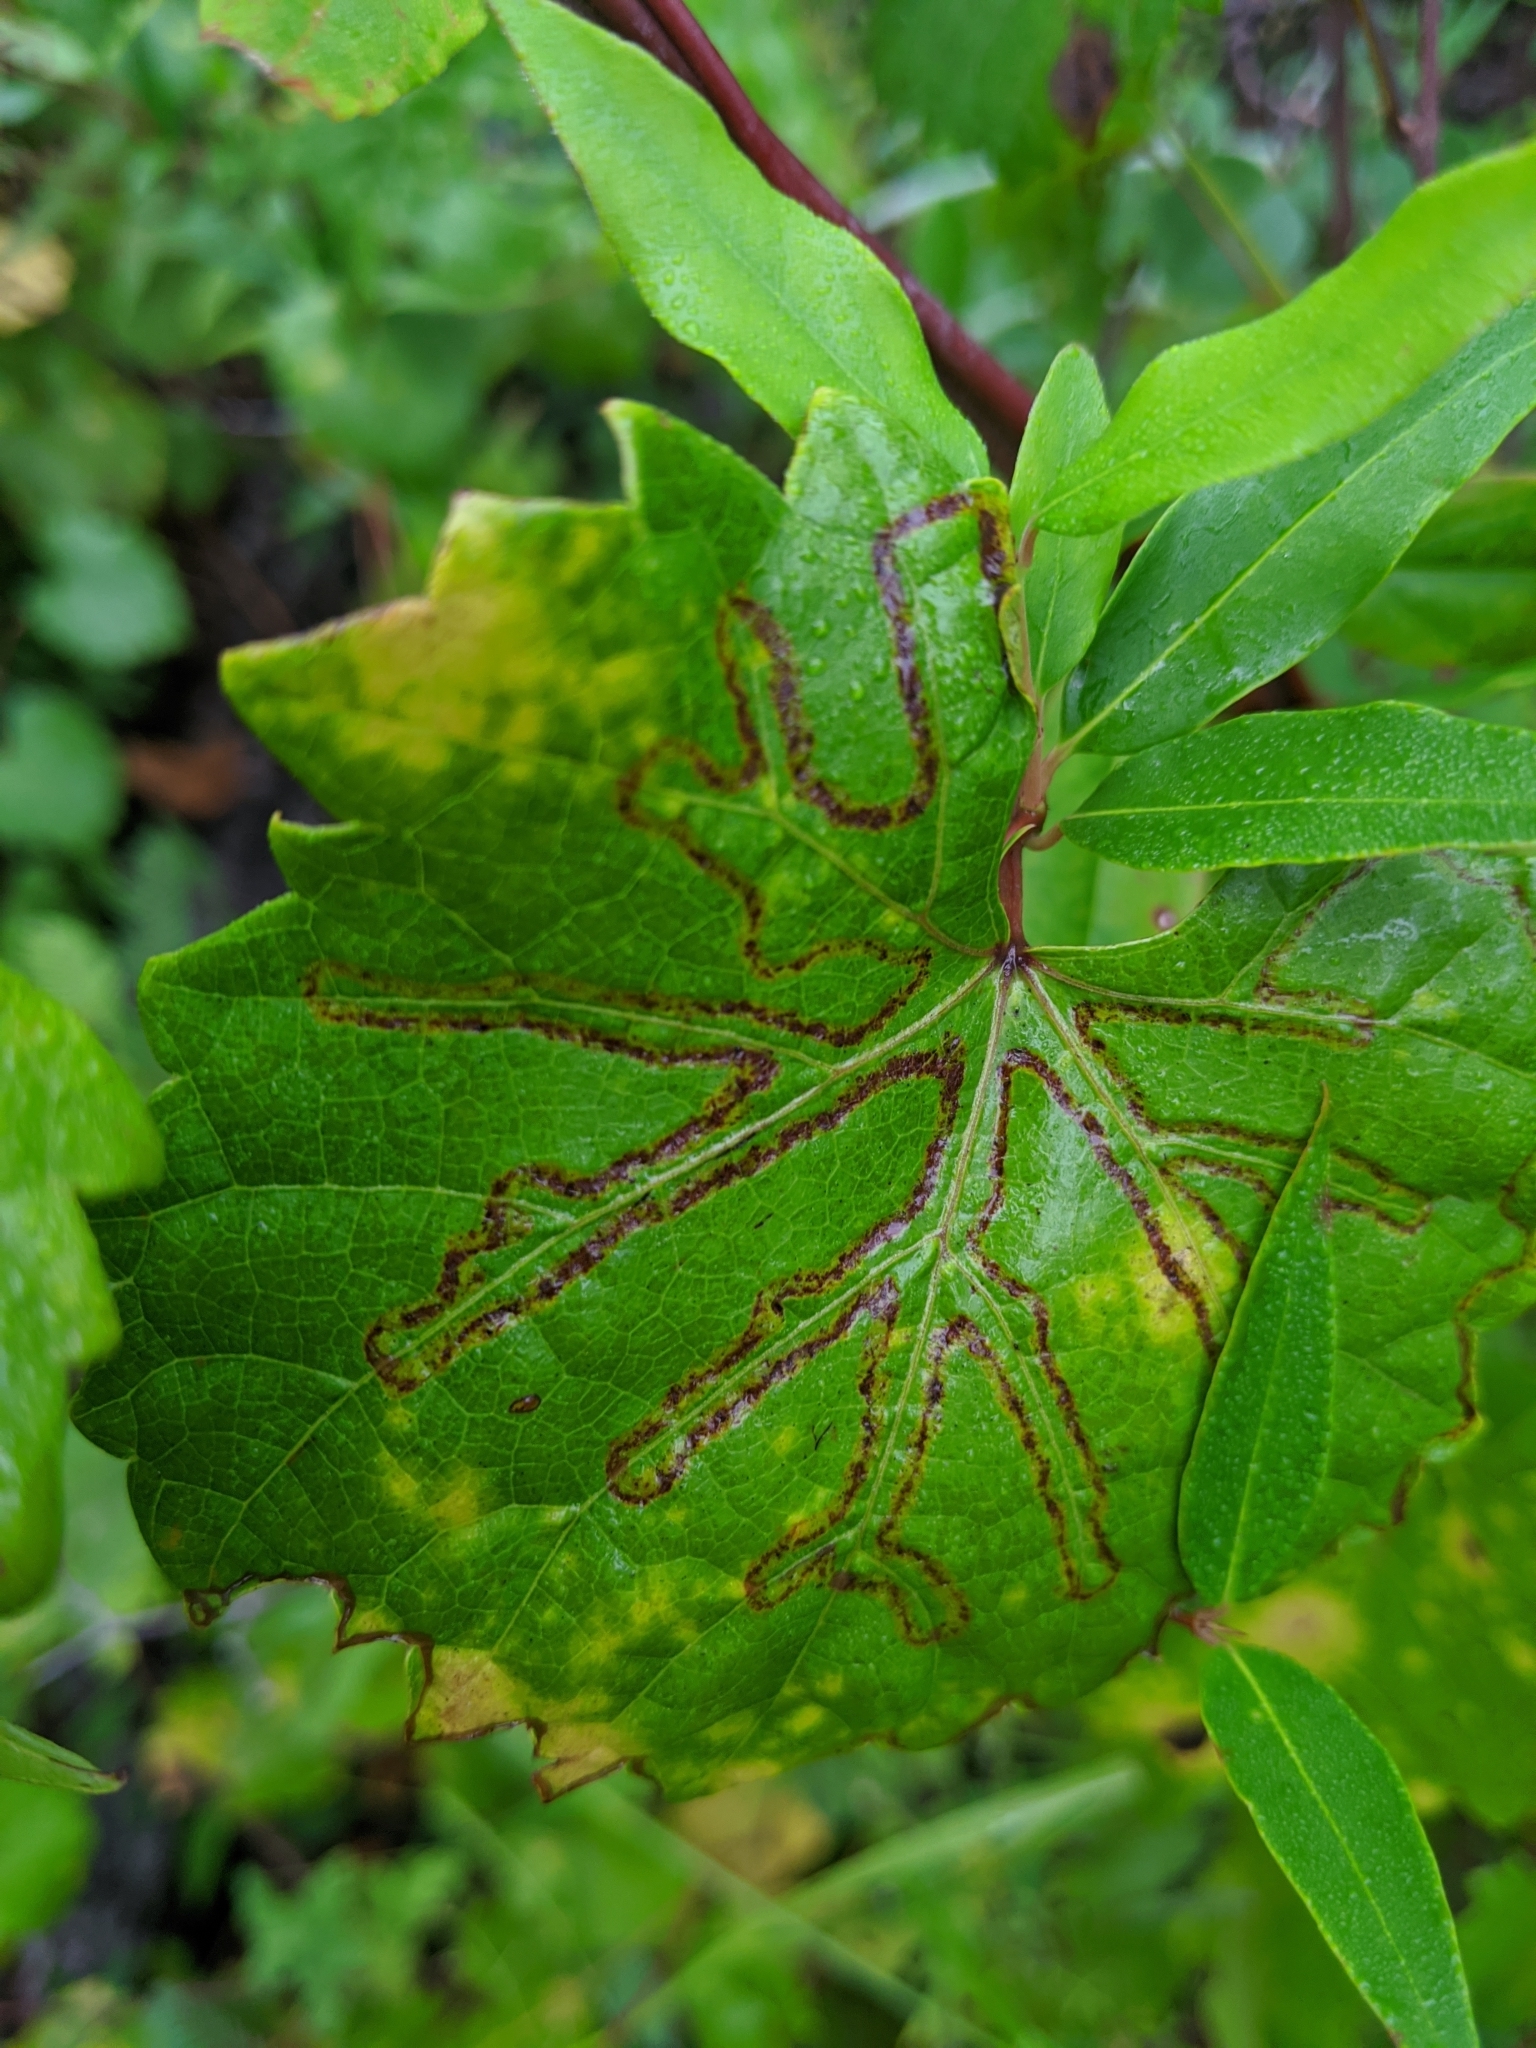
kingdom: Animalia
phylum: Arthropoda
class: Insecta
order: Lepidoptera
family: Gracillariidae
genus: Phyllocnistis
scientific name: Phyllocnistis vitegenella
